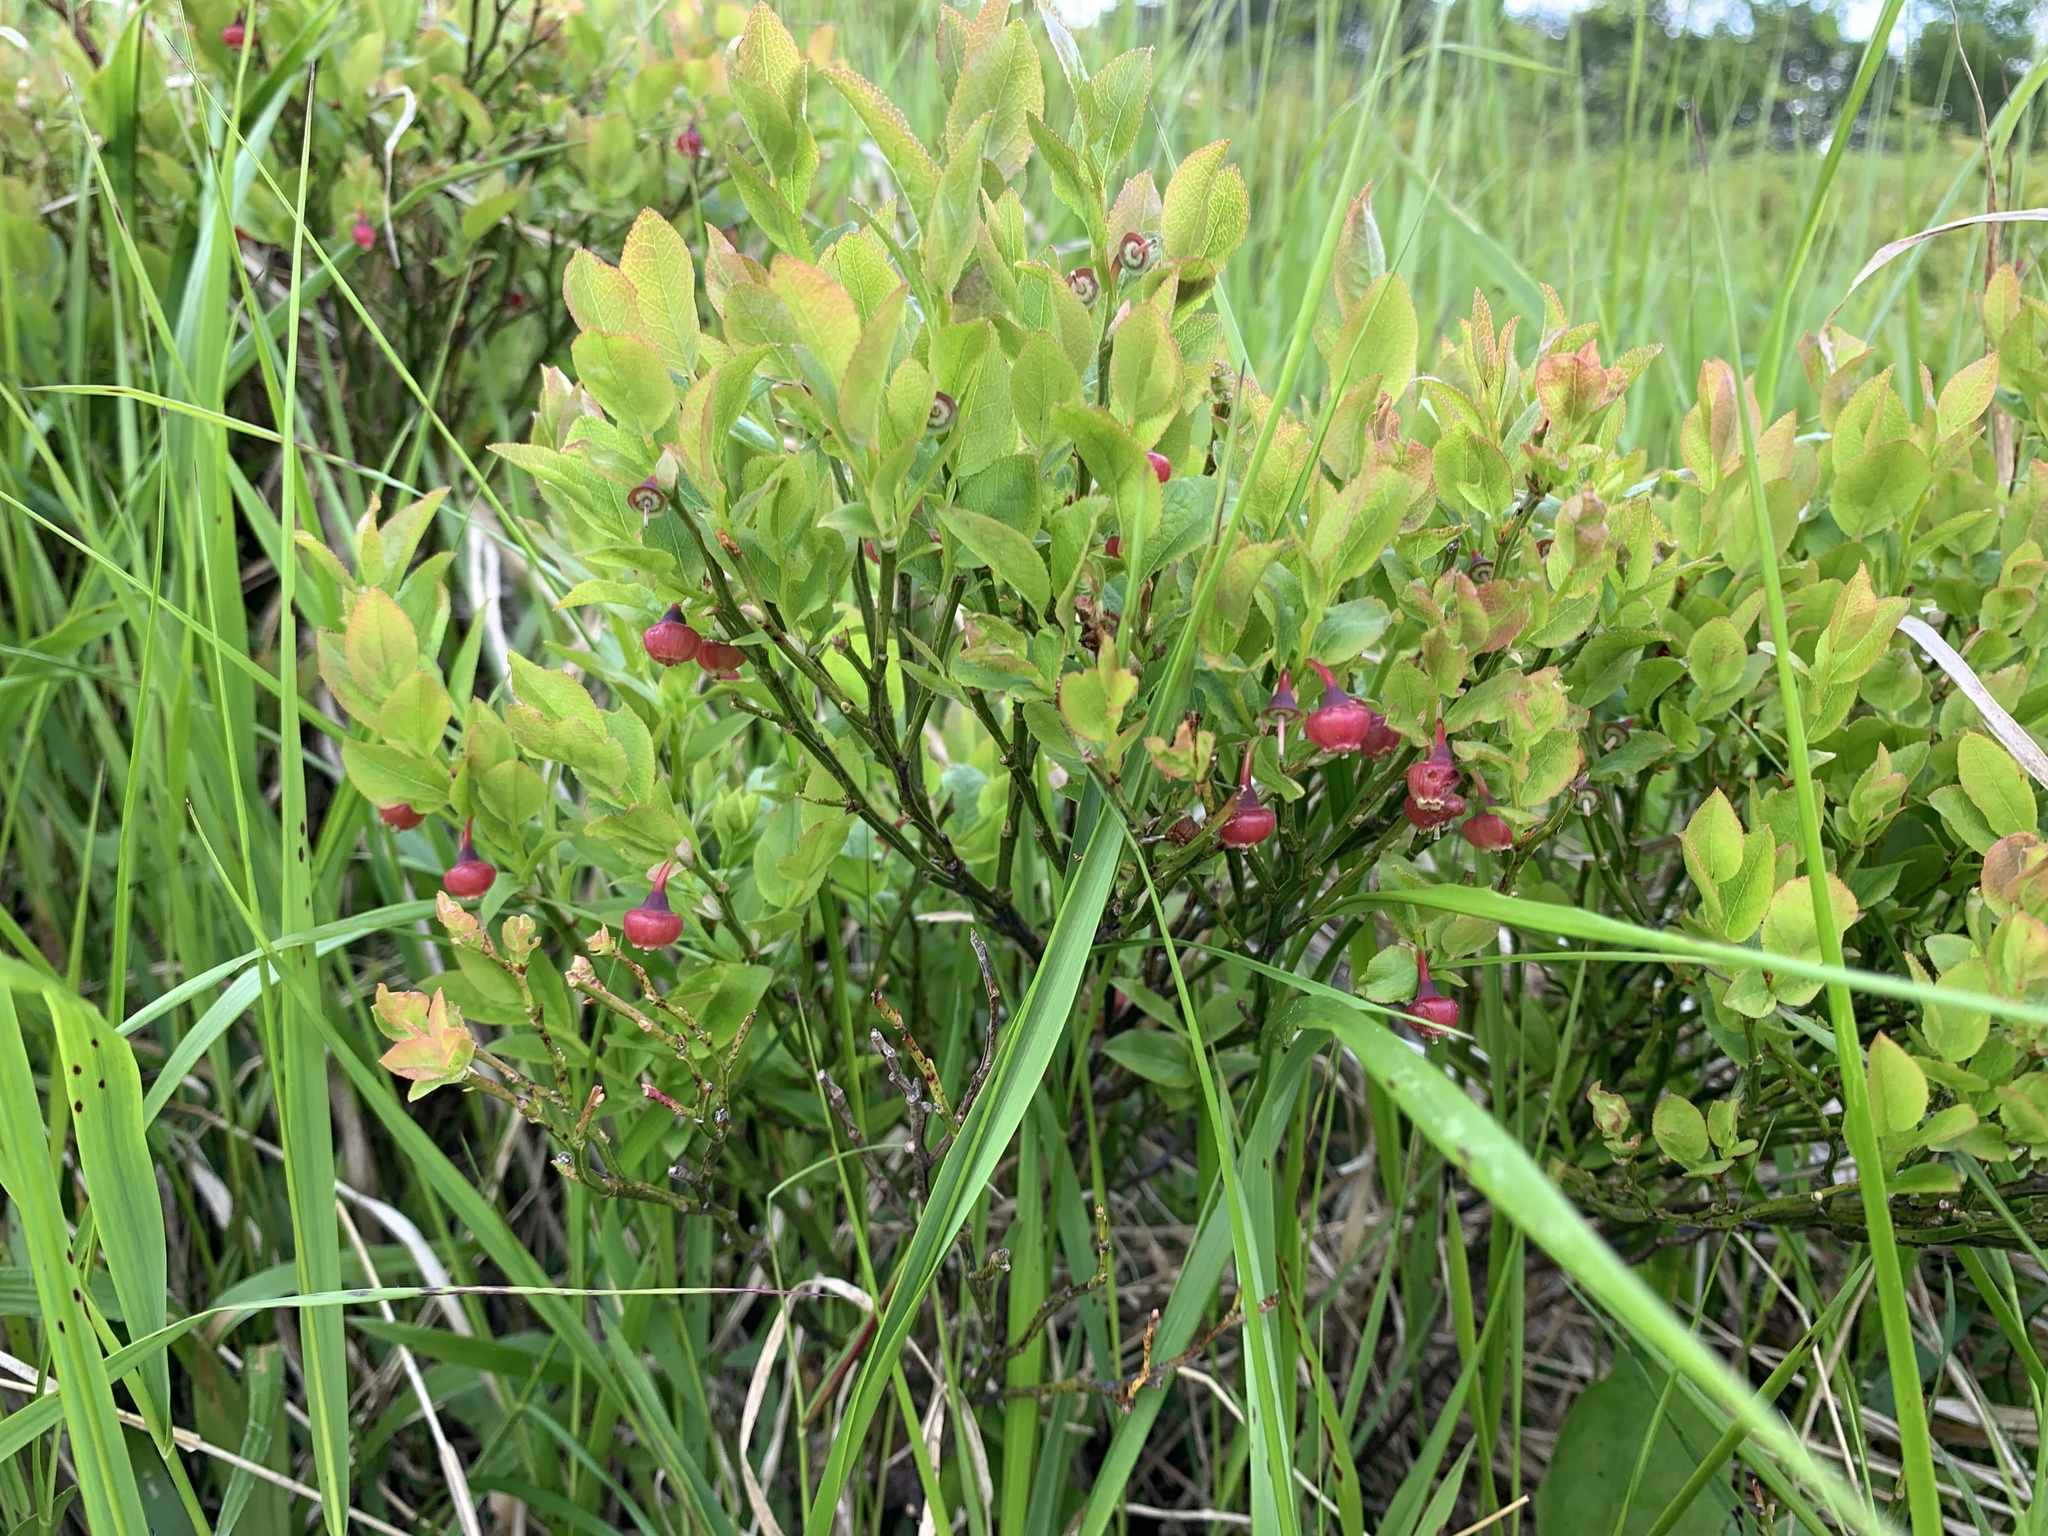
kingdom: Plantae
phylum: Tracheophyta
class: Magnoliopsida
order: Ericales
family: Ericaceae
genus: Vaccinium
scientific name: Vaccinium myrtillus
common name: Bilberry
